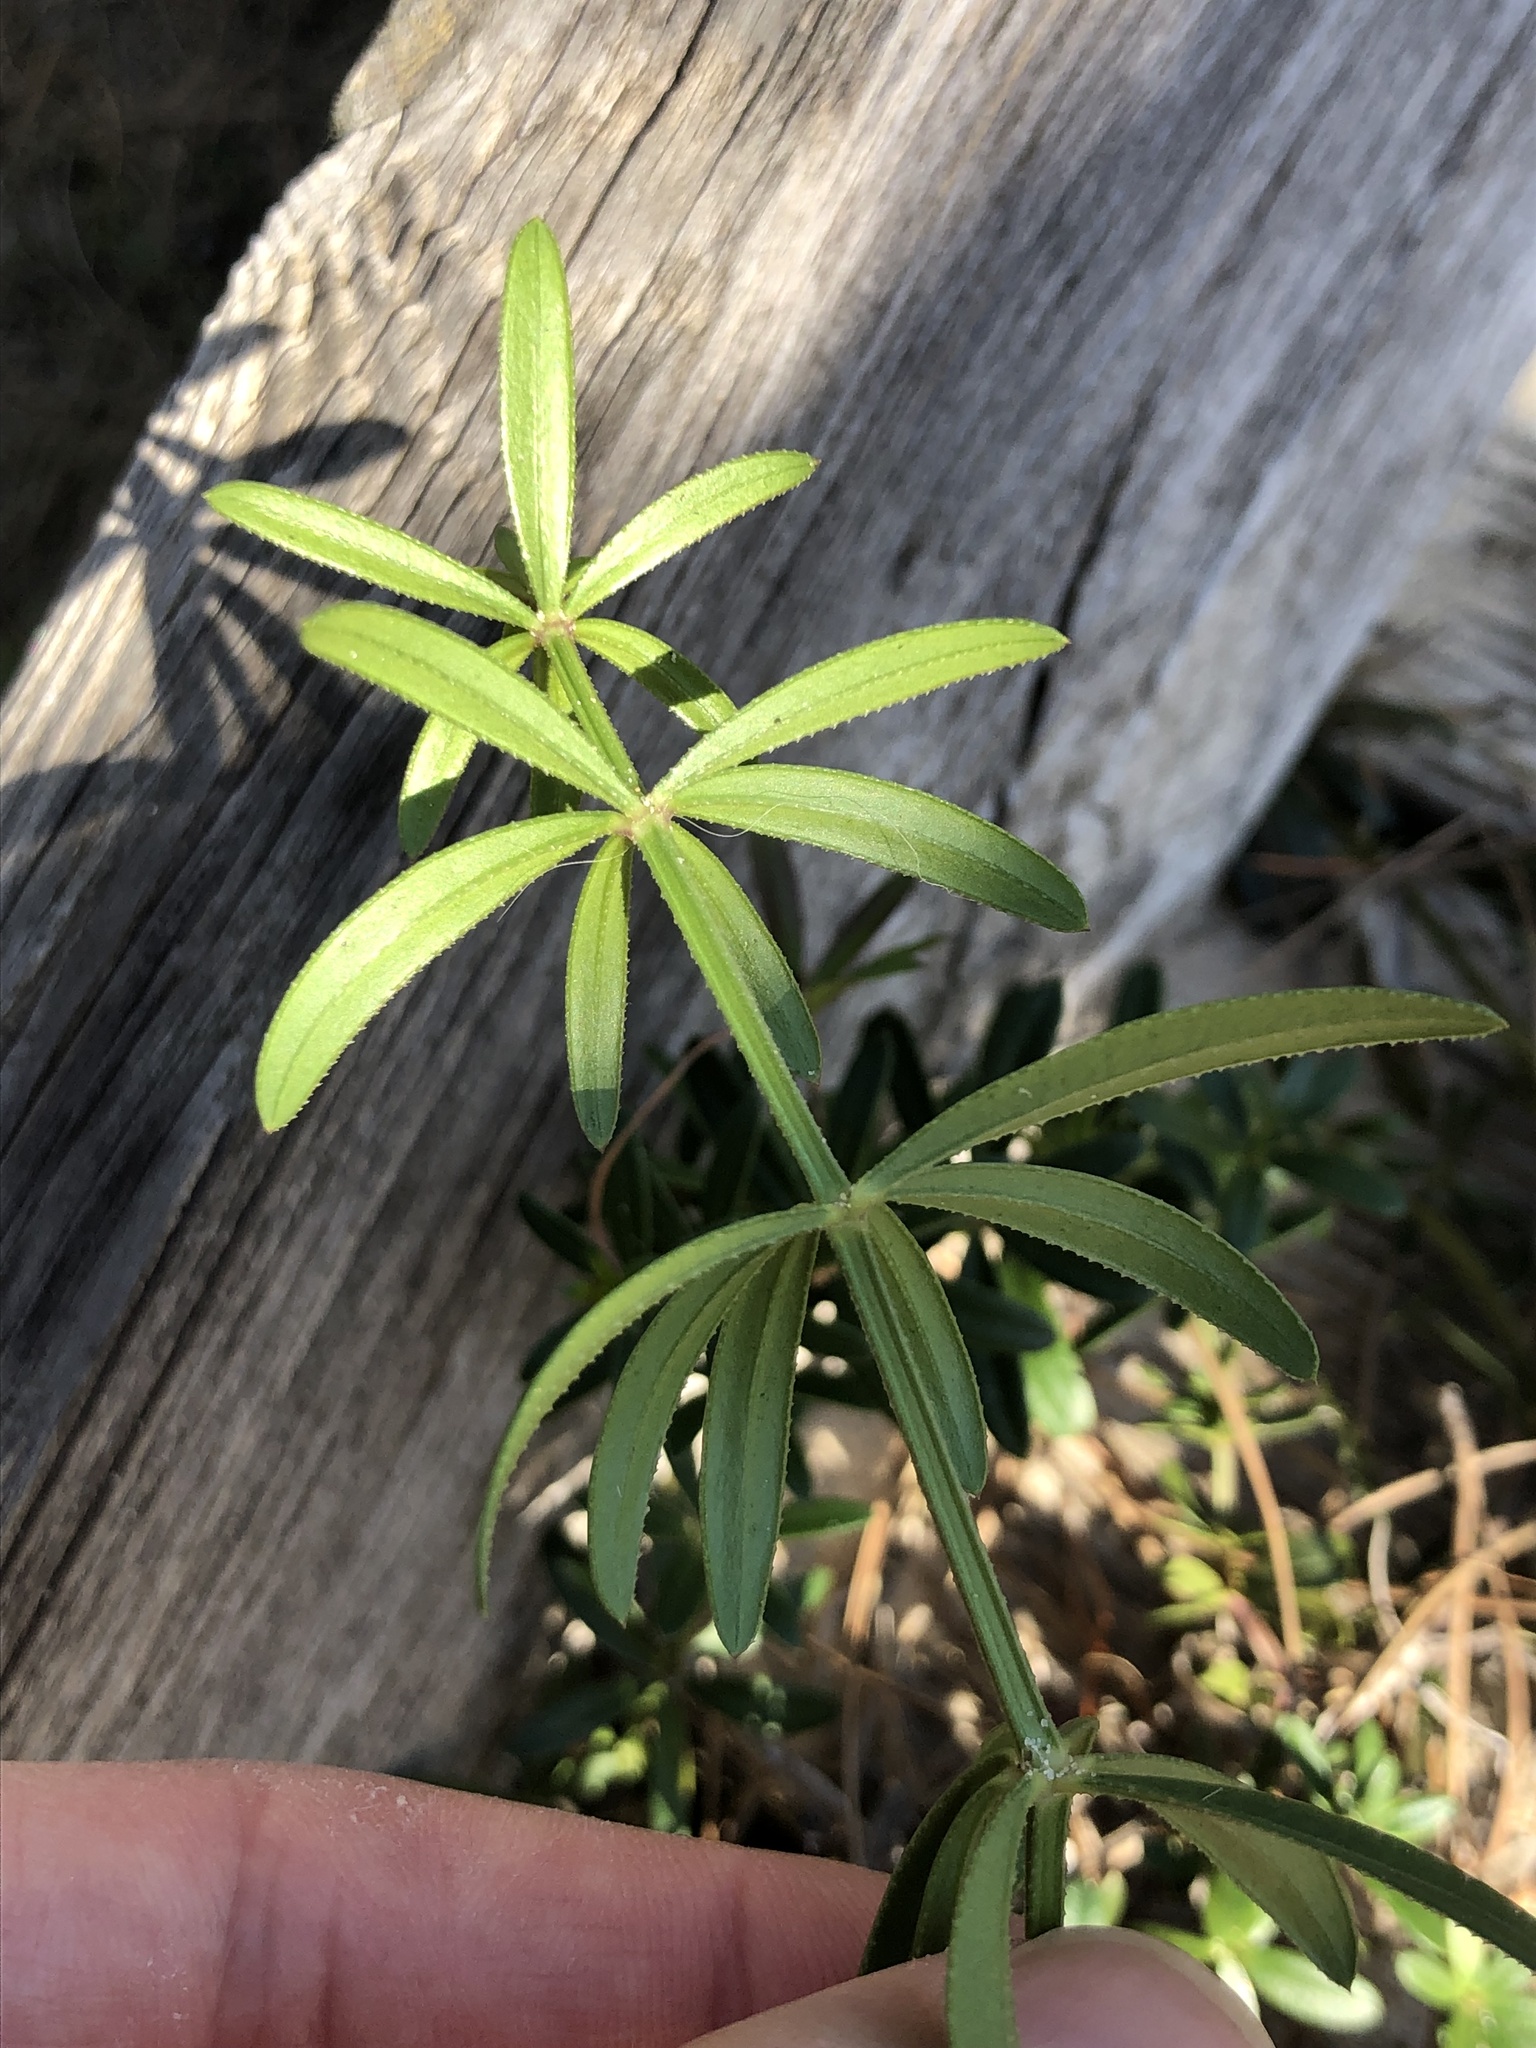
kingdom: Plantae
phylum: Tracheophyta
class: Magnoliopsida
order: Gentianales
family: Rubiaceae
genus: Rubia
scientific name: Rubia peregrina
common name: Wild madder
